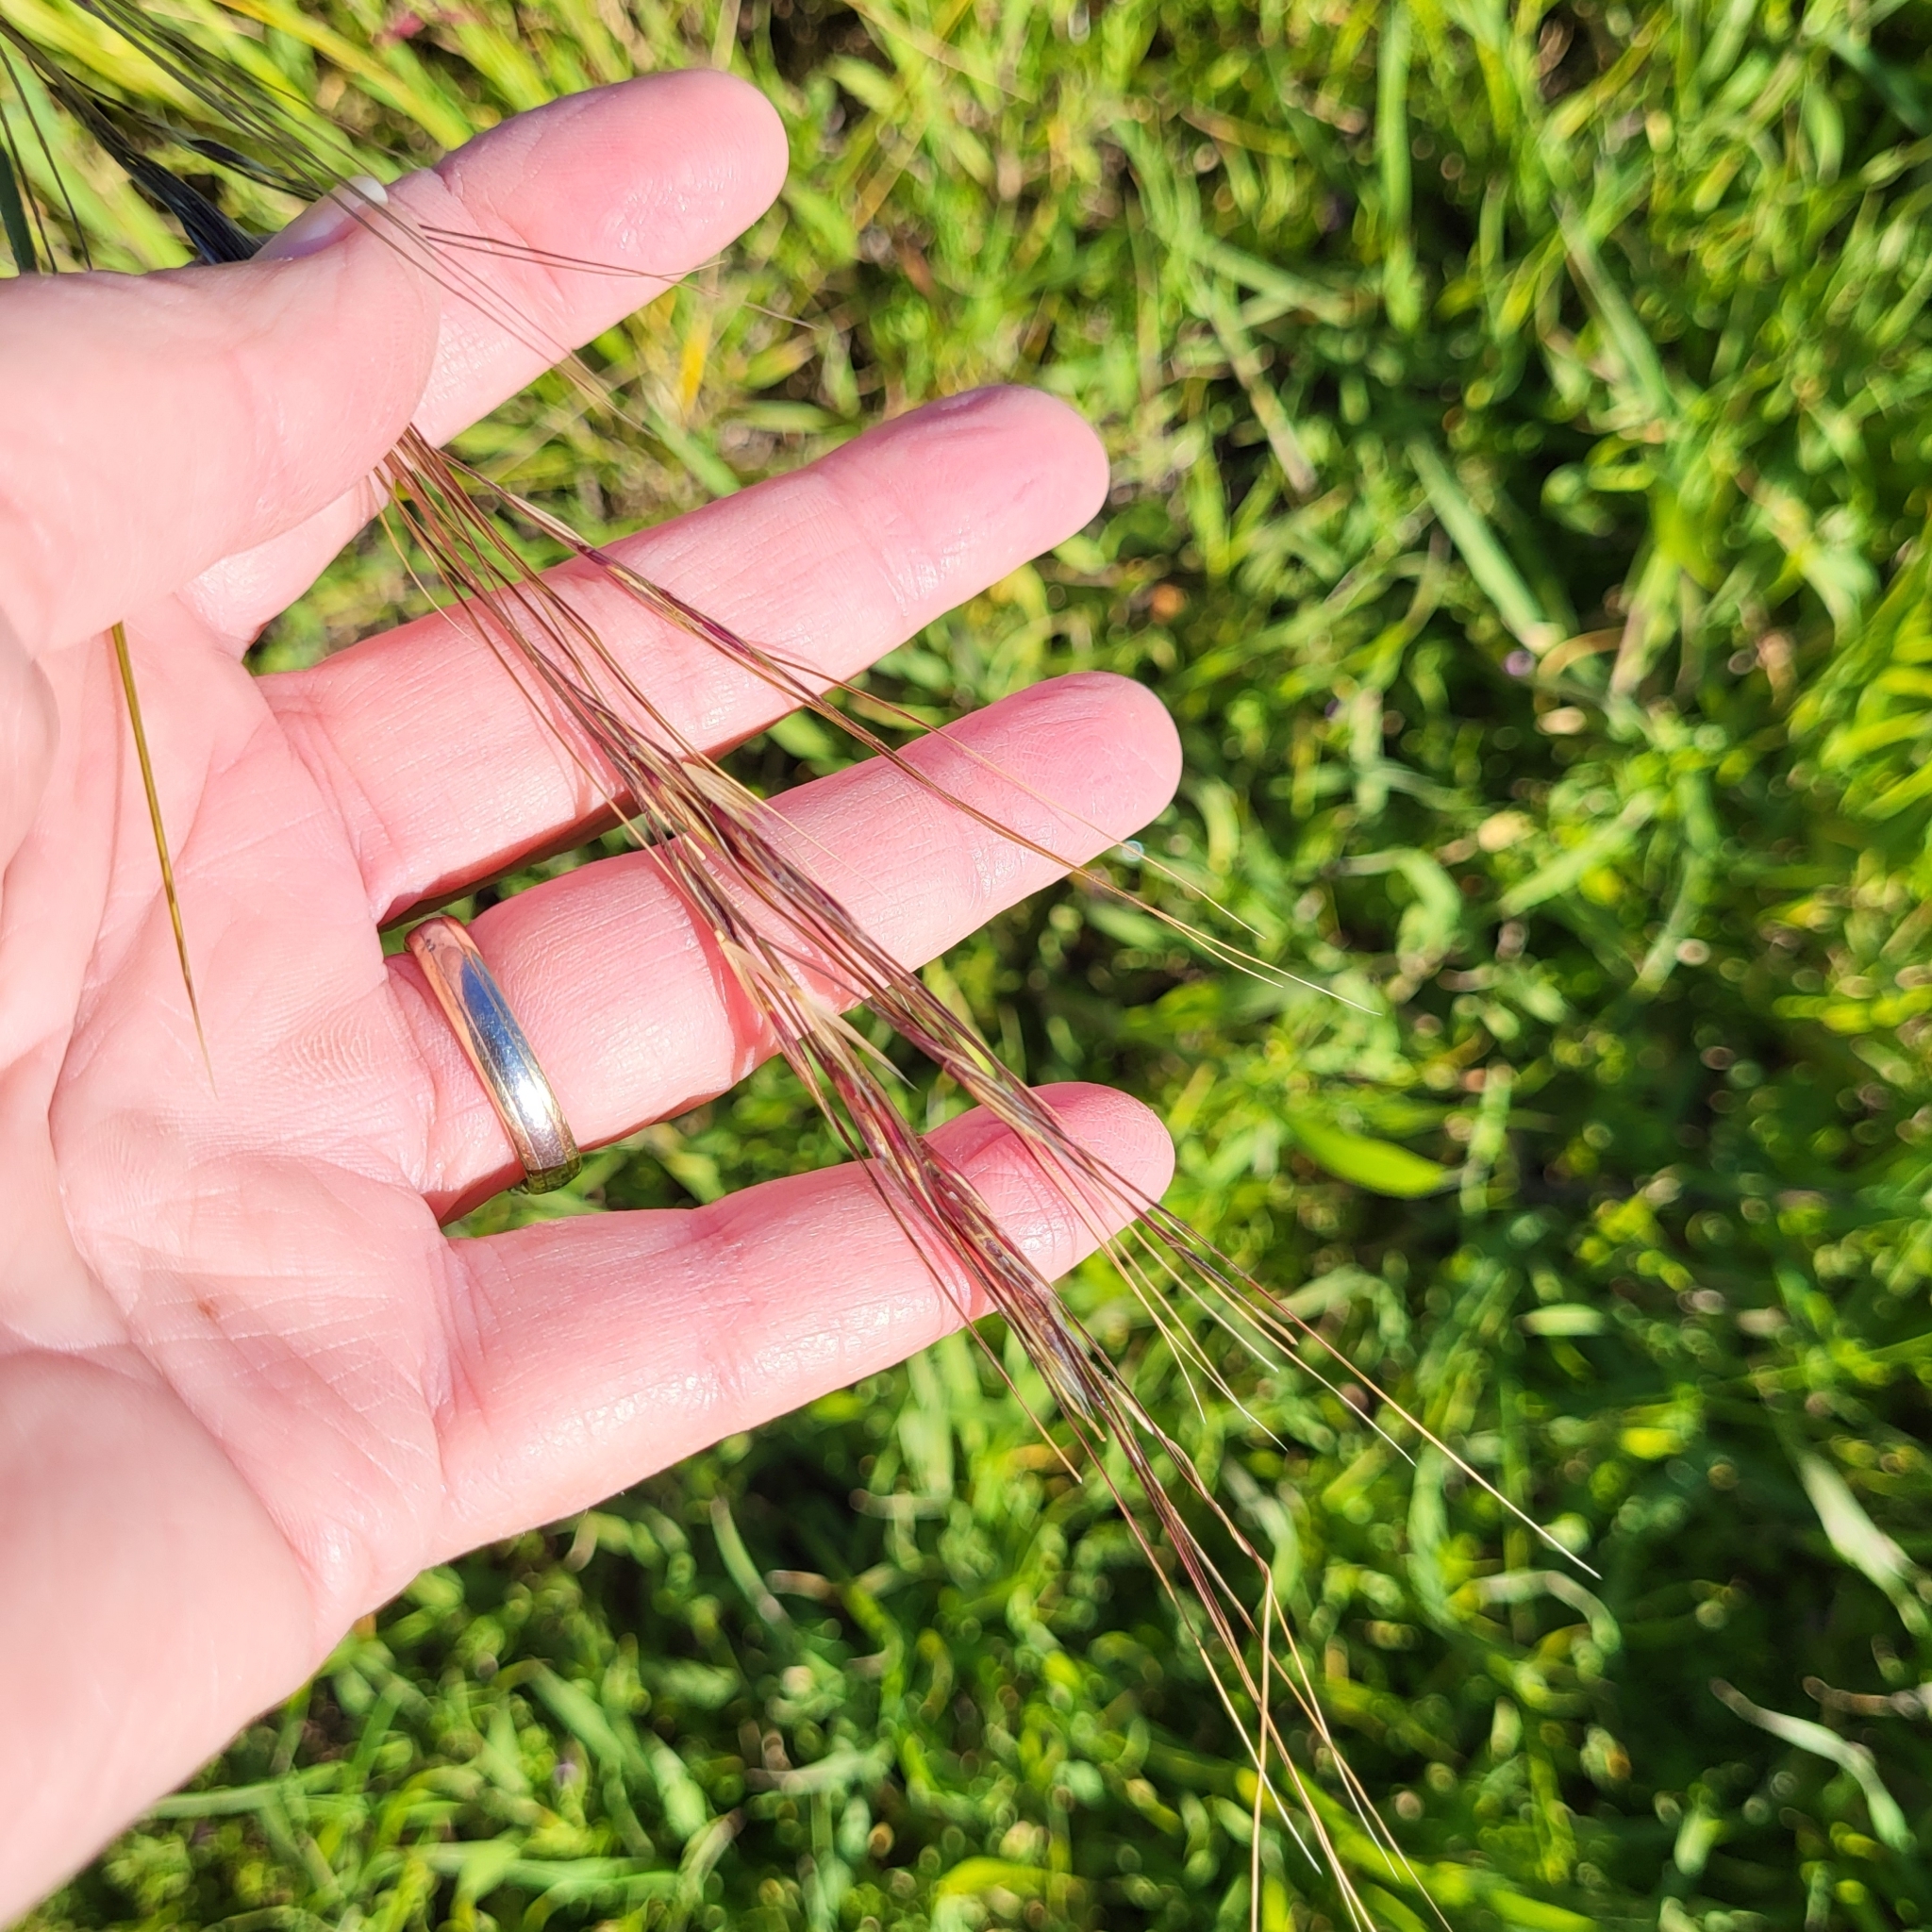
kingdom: Plantae
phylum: Tracheophyta
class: Liliopsida
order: Poales
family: Poaceae
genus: Nassella
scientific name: Nassella pulchra
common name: Purple needlegrass
